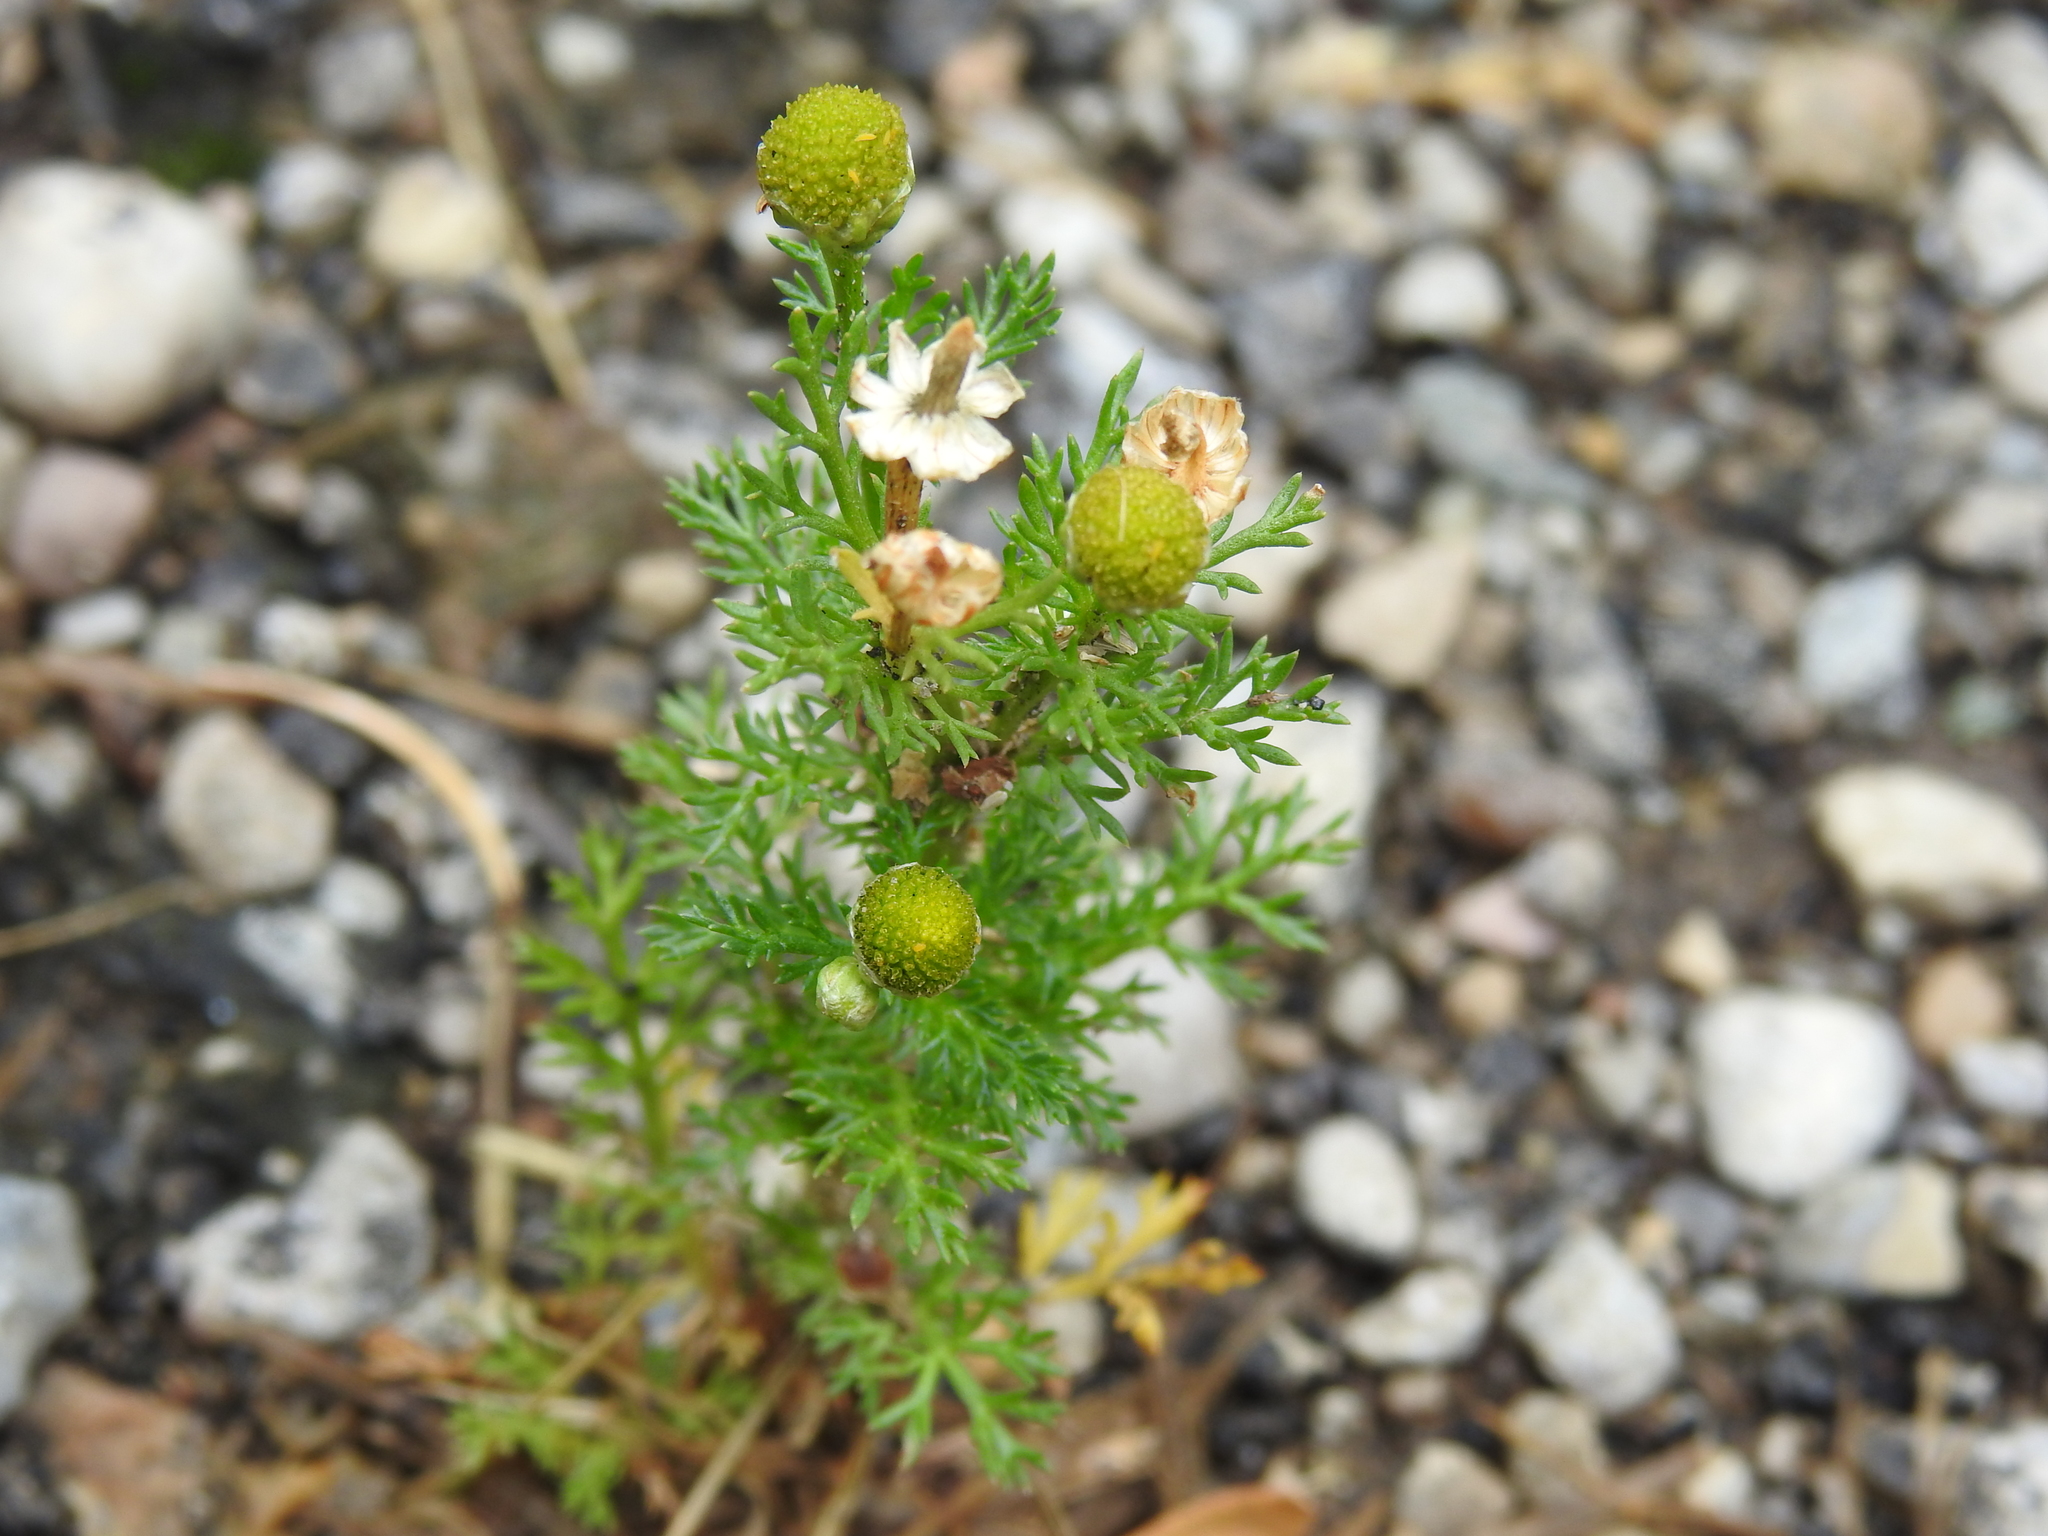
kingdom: Plantae
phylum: Tracheophyta
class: Magnoliopsida
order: Asterales
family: Asteraceae
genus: Matricaria
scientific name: Matricaria discoidea
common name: Disc mayweed
